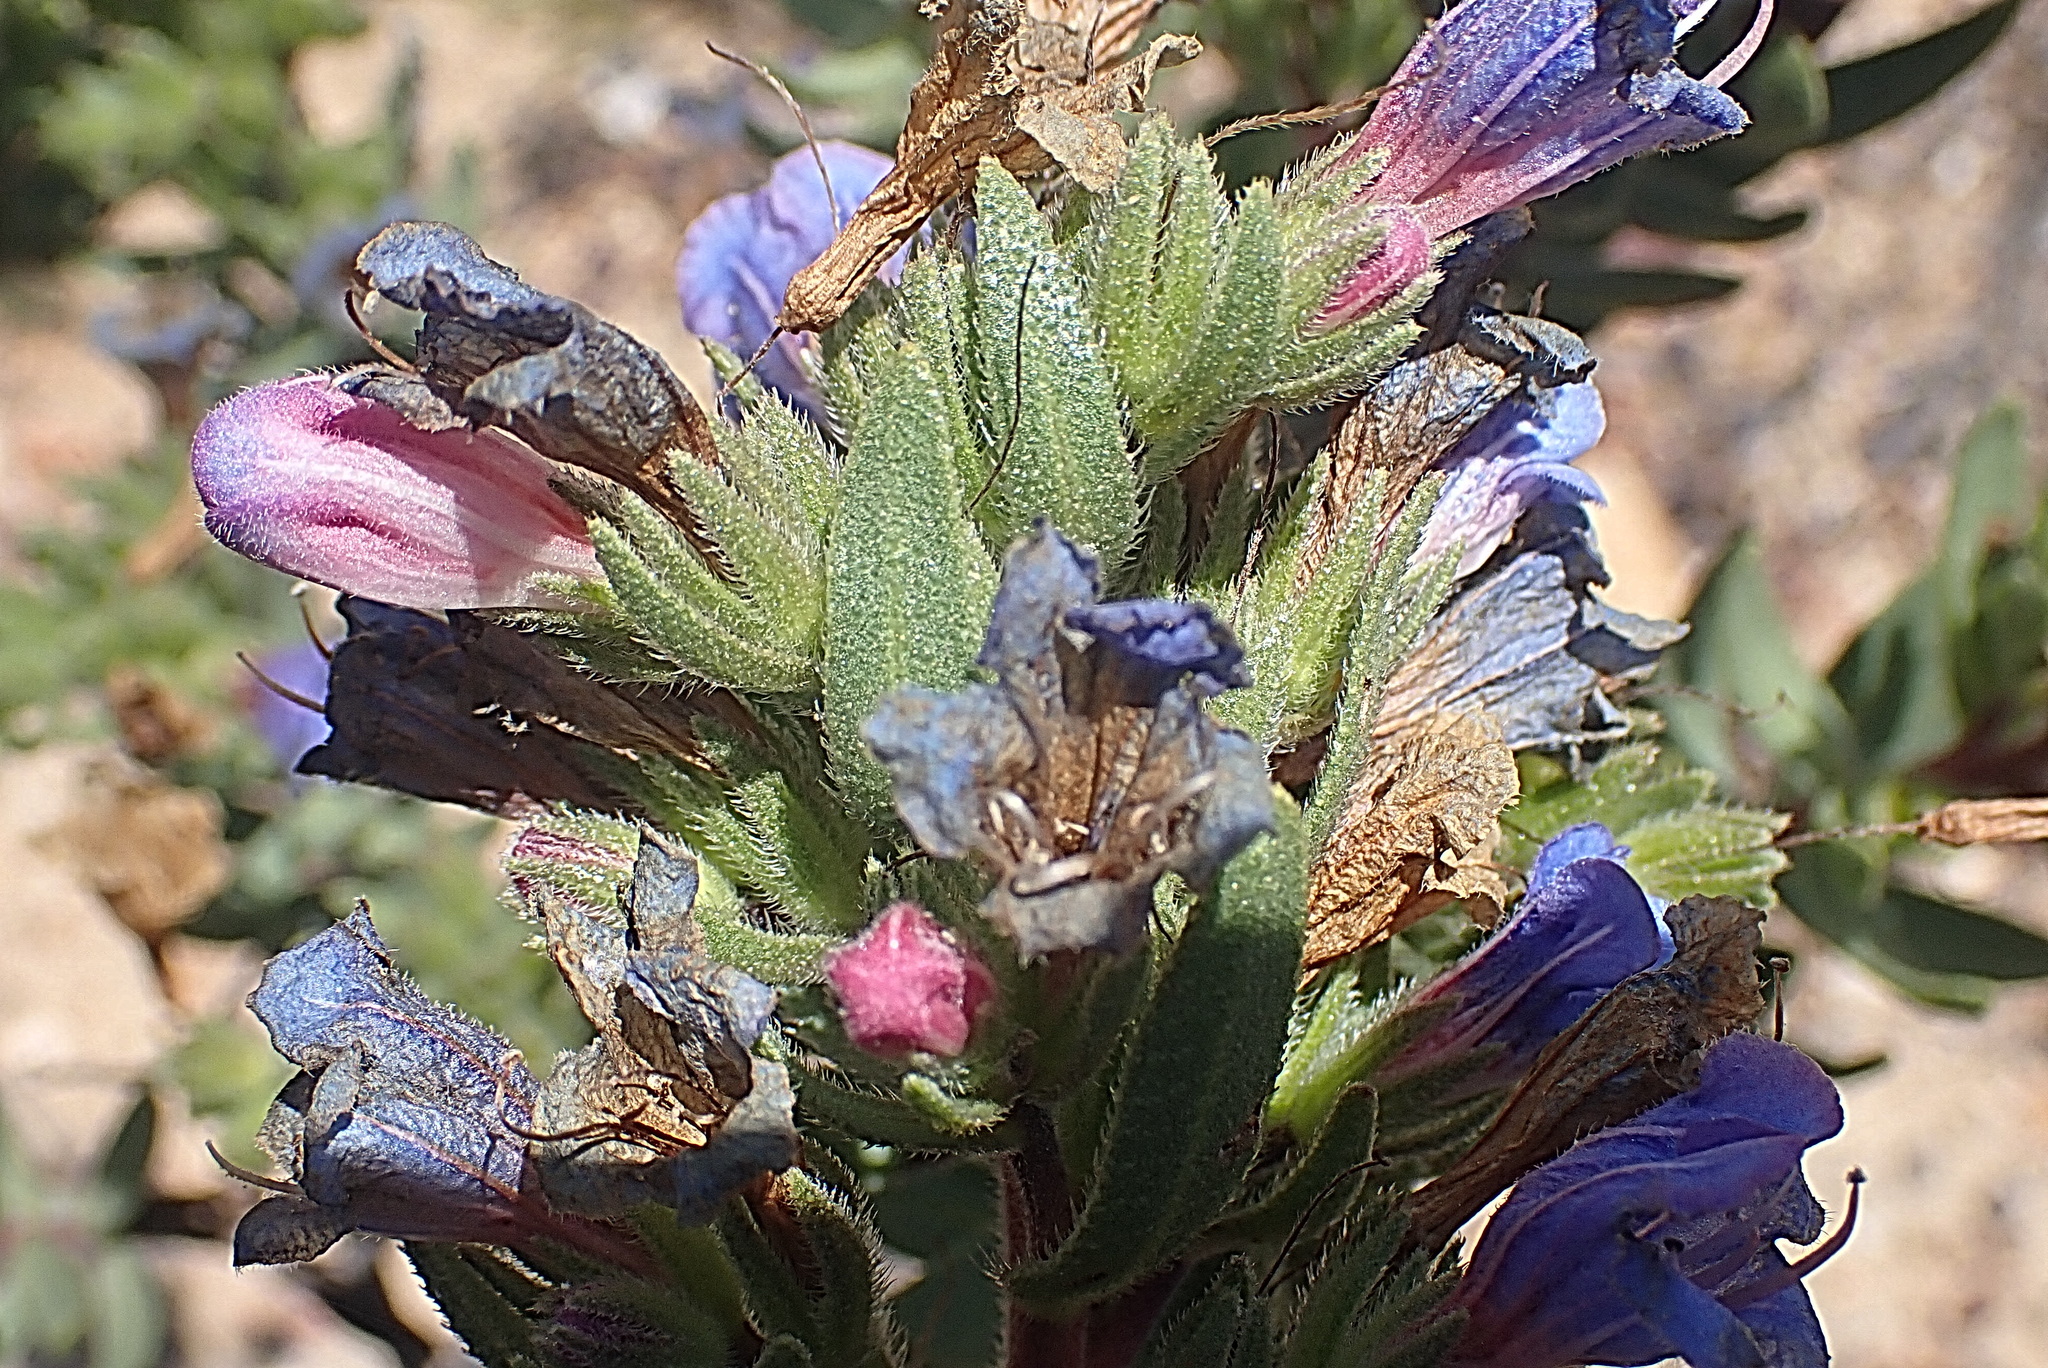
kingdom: Plantae
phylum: Tracheophyta
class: Magnoliopsida
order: Boraginales
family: Boraginaceae
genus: Lobostemon
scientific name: Lobostemon marlothii
